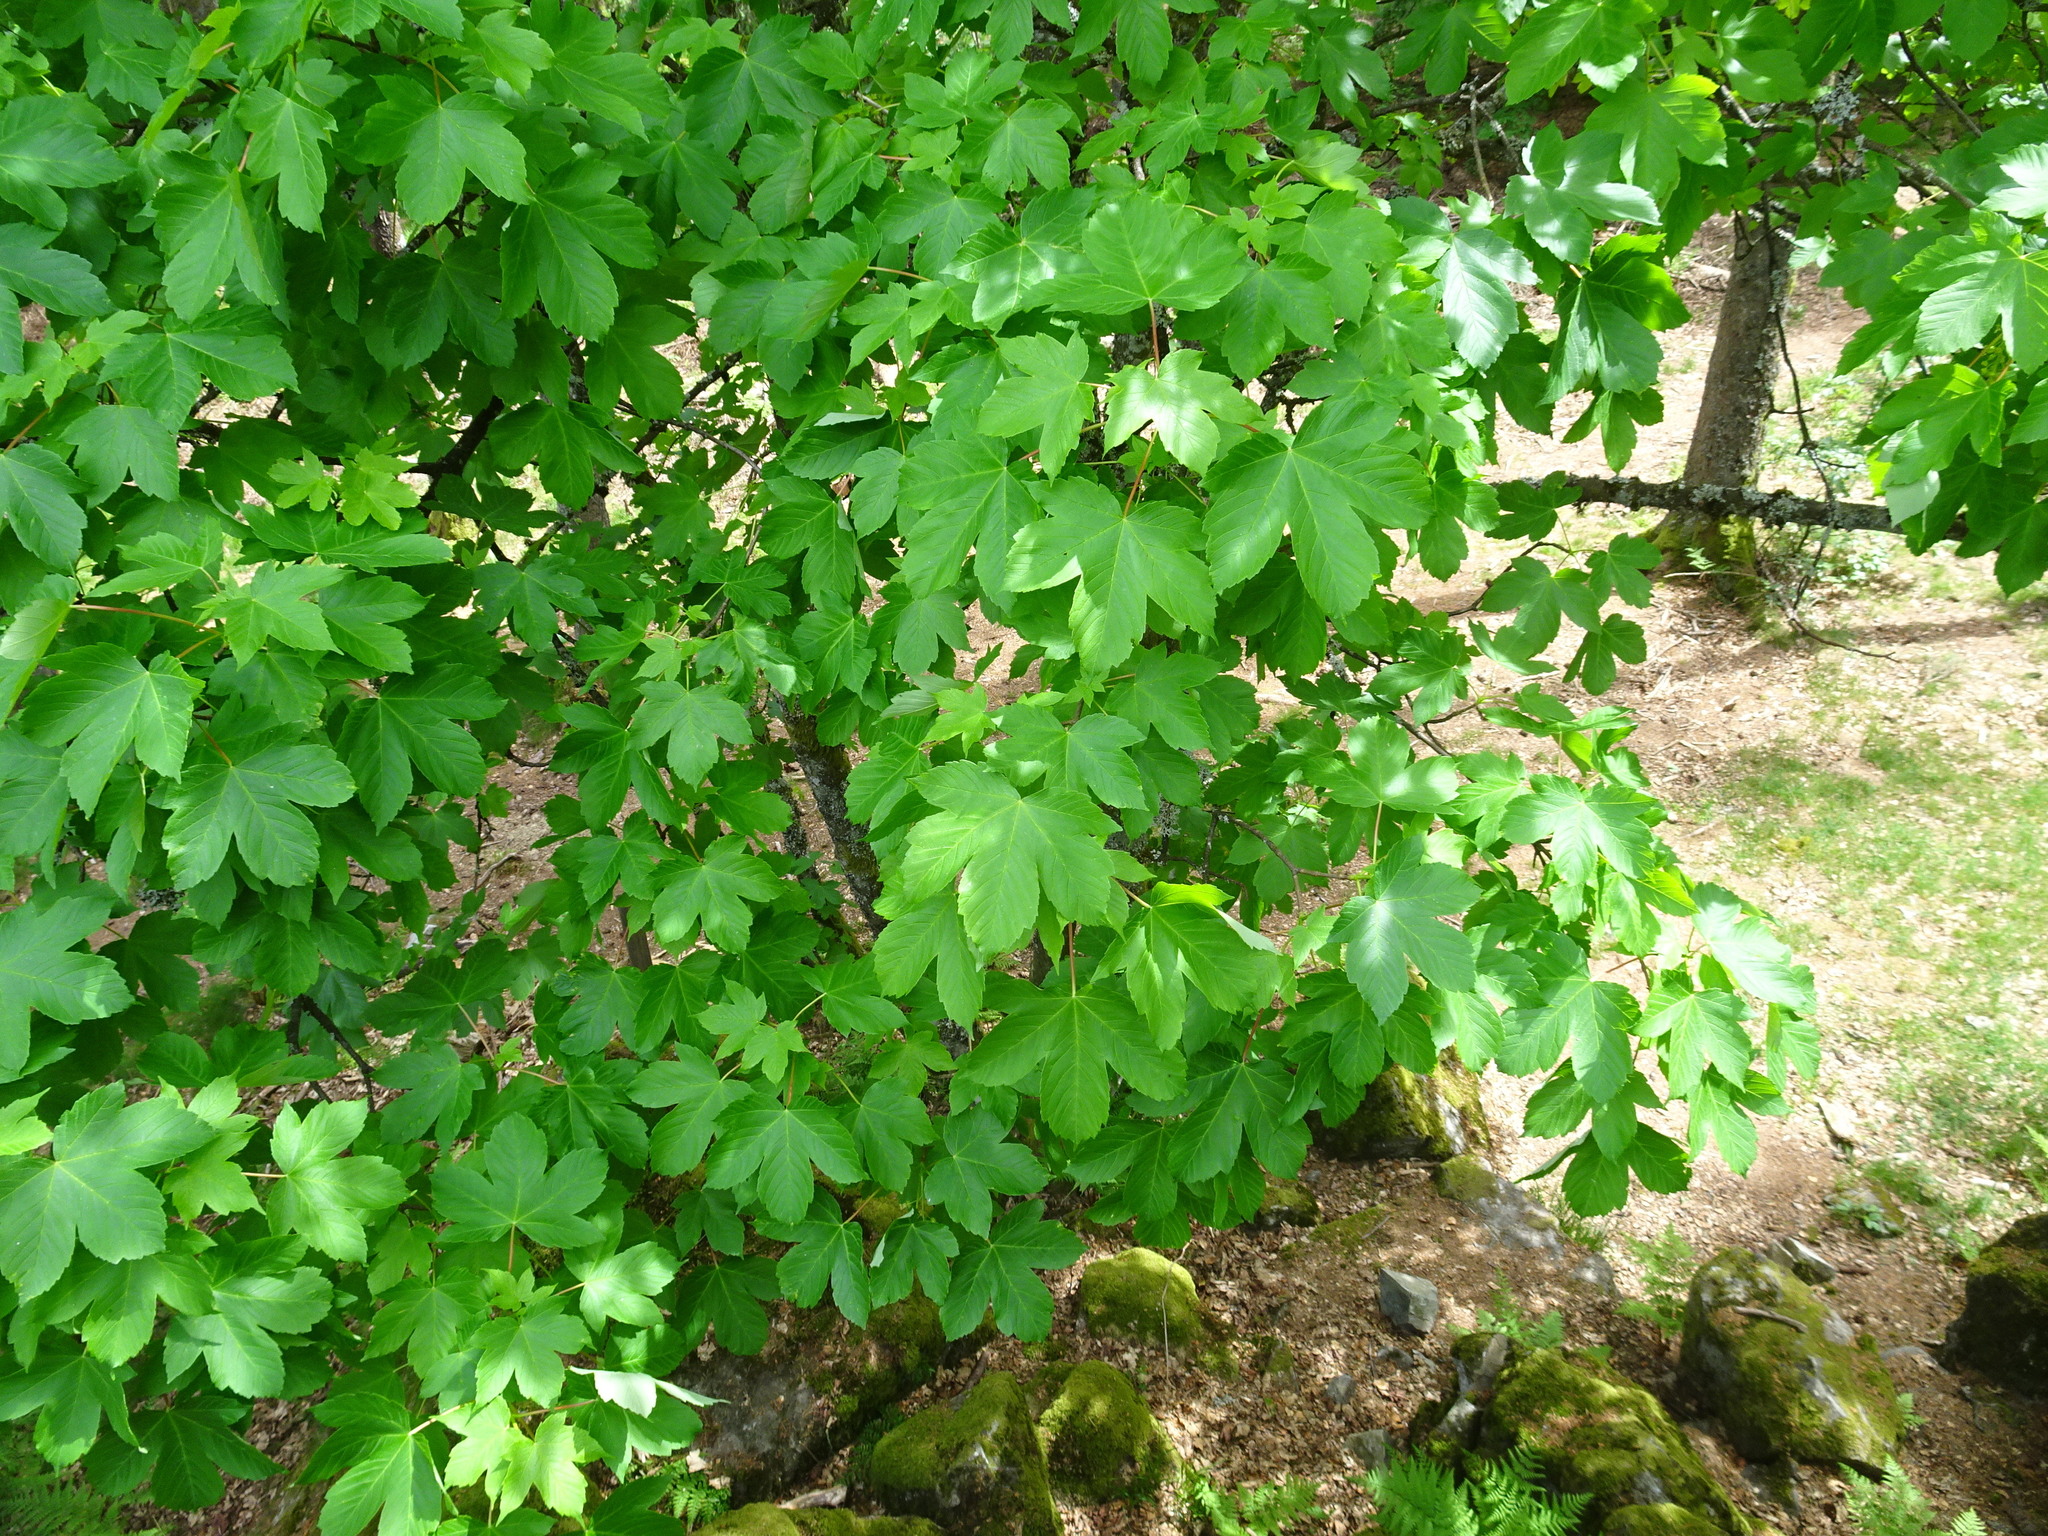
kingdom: Plantae
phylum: Tracheophyta
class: Magnoliopsida
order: Sapindales
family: Sapindaceae
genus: Acer
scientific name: Acer pseudoplatanus
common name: Sycamore
